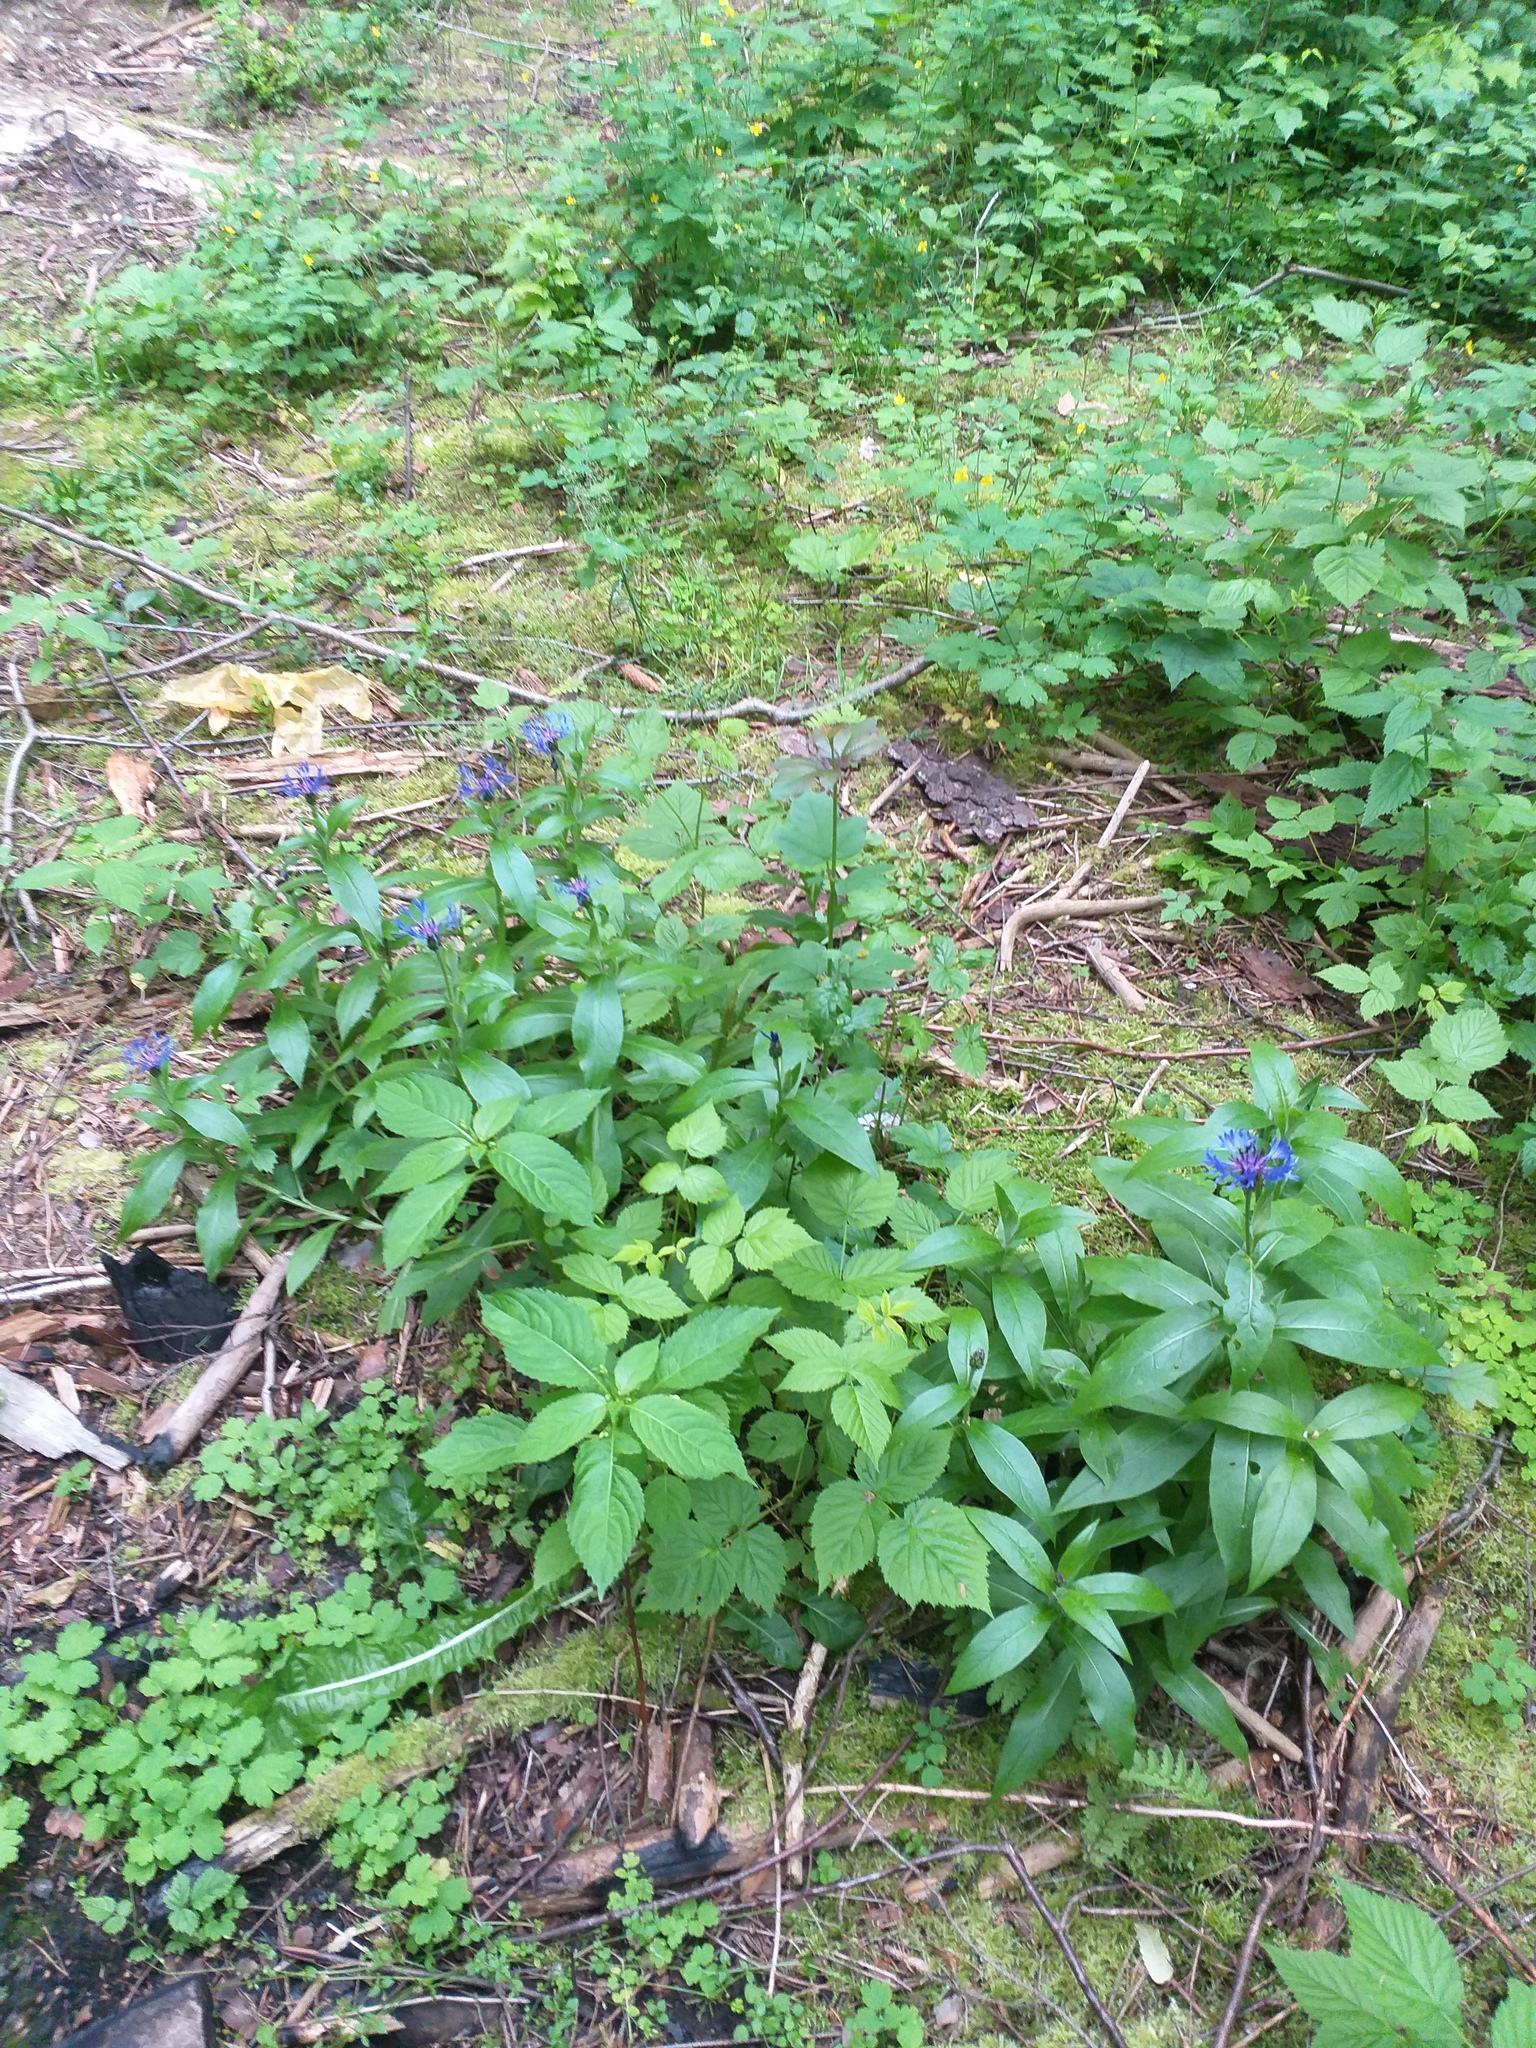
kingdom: Plantae
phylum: Tracheophyta
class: Magnoliopsida
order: Asterales
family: Asteraceae
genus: Centaurea
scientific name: Centaurea montana
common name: Perennial cornflower
